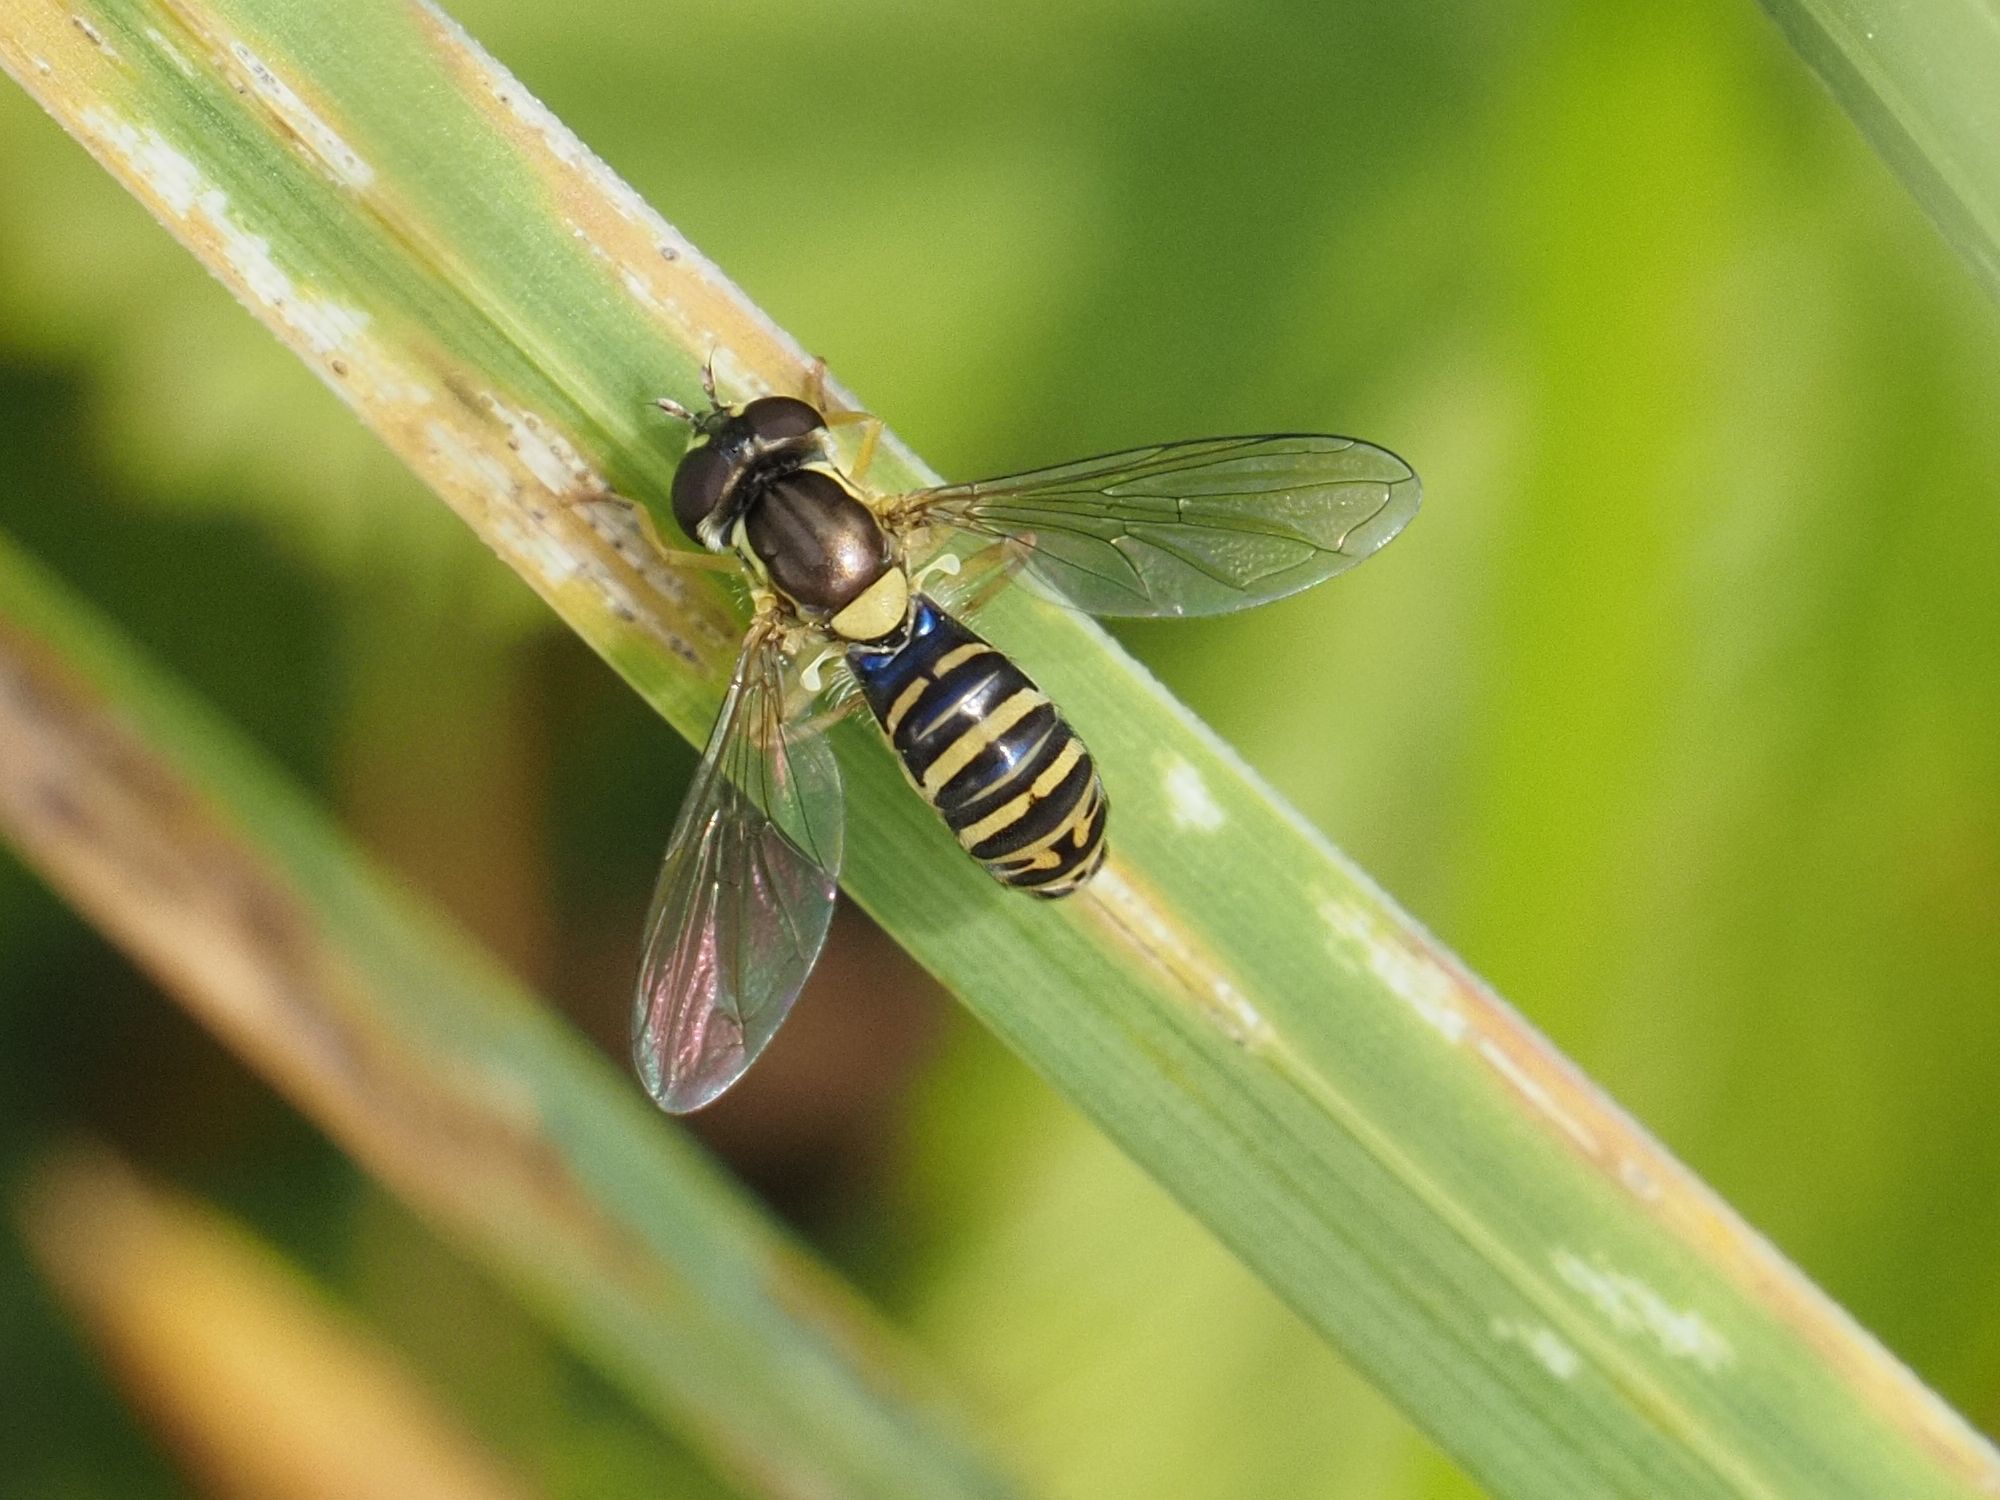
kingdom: Animalia
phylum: Arthropoda
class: Insecta
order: Diptera
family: Syrphidae
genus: Sphaerophoria
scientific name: Sphaerophoria
